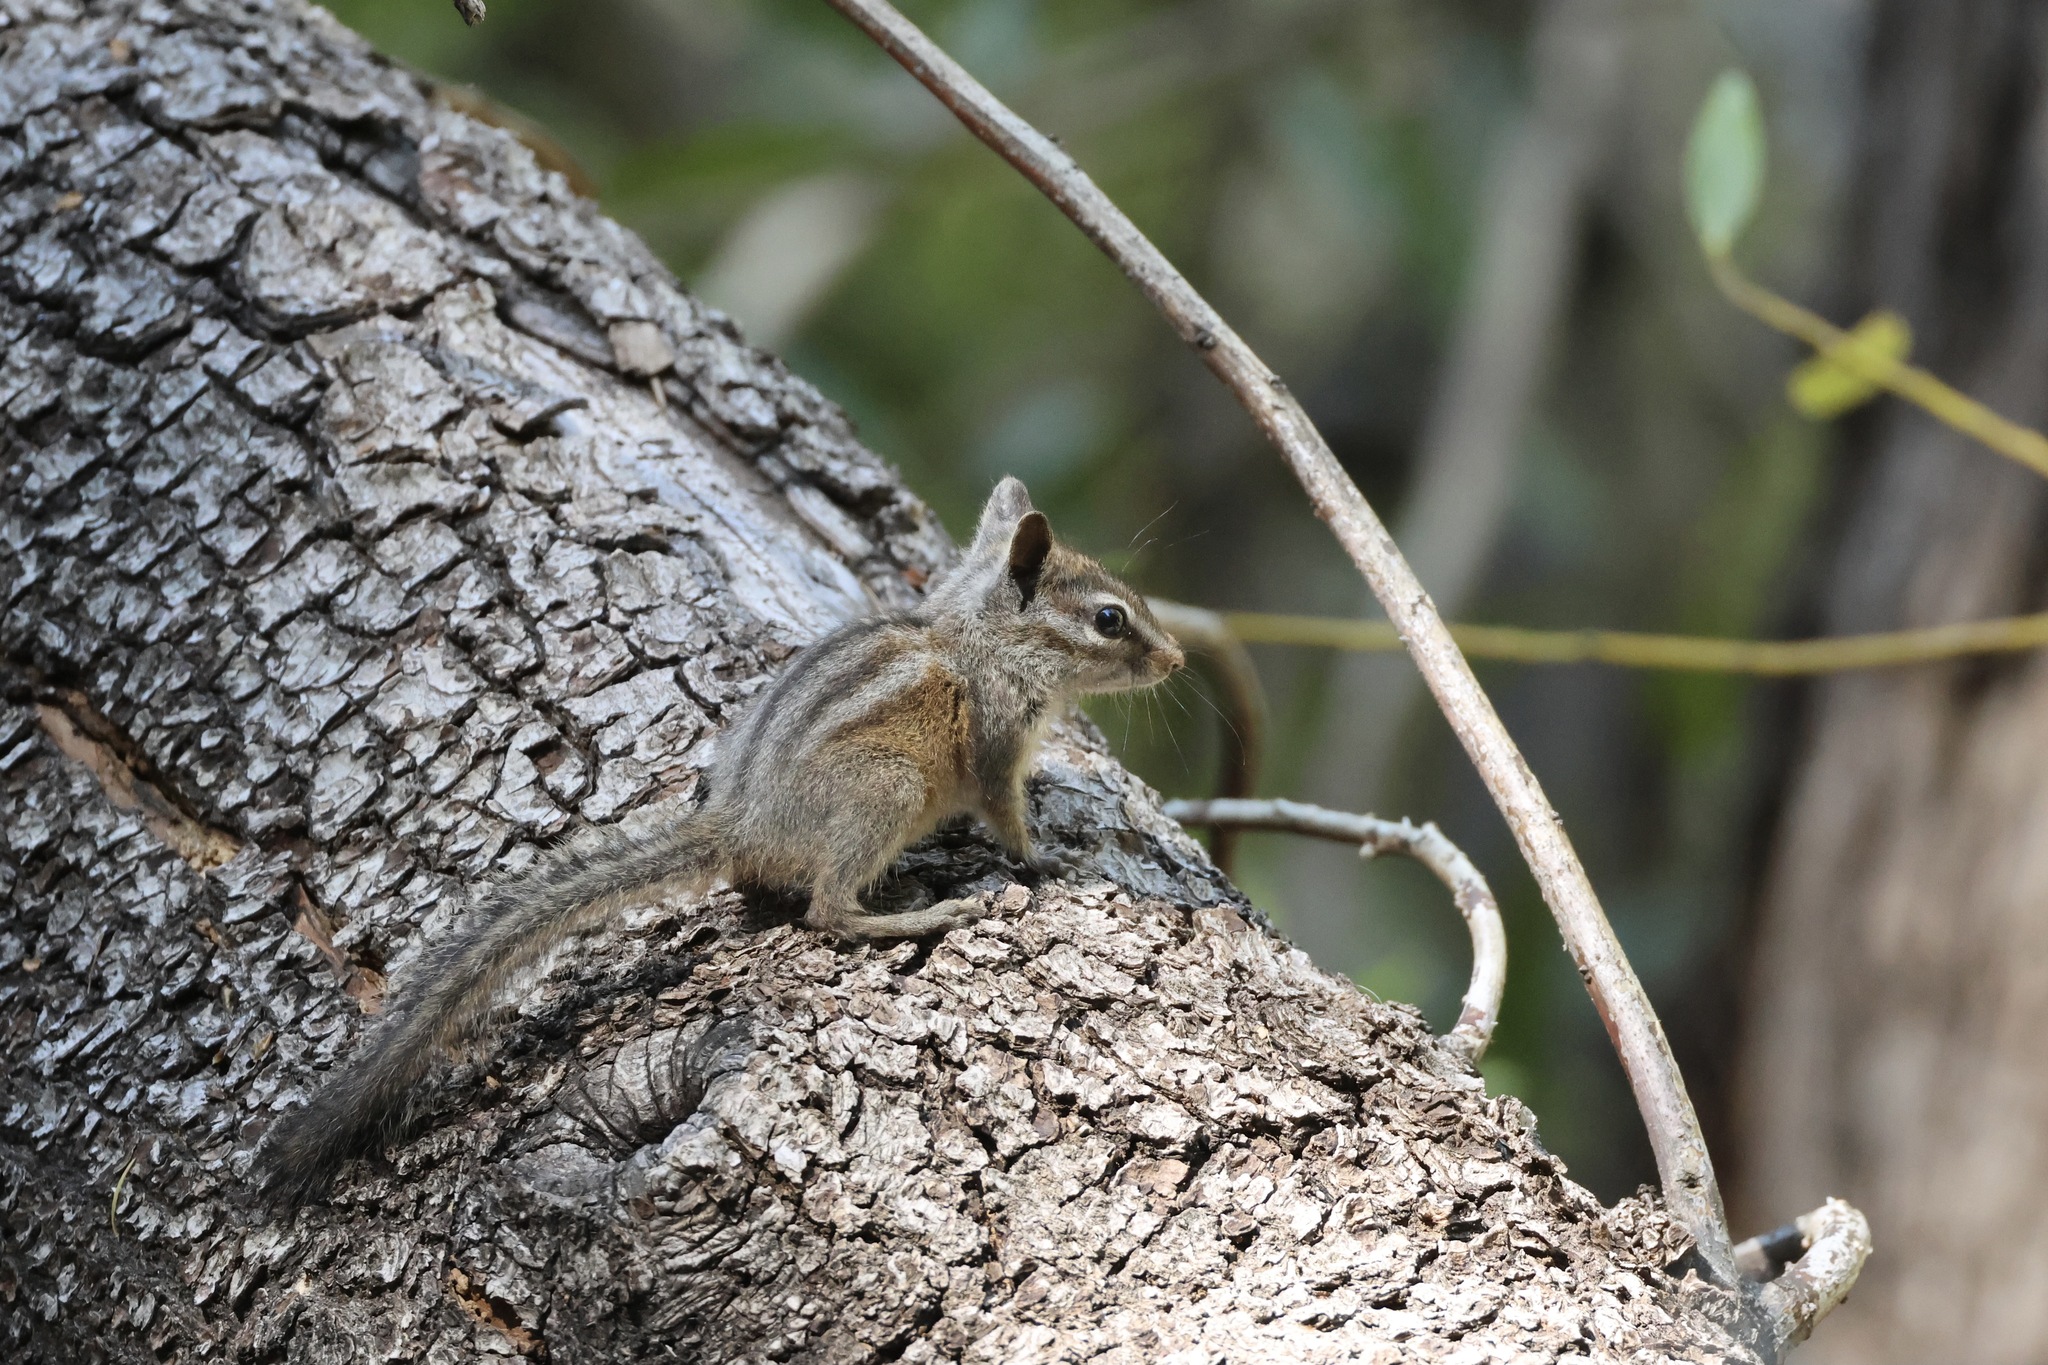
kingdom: Animalia
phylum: Chordata
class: Mammalia
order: Rodentia
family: Sciuridae
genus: Tamias
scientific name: Tamias merriami
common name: Merriam's chipmunk
